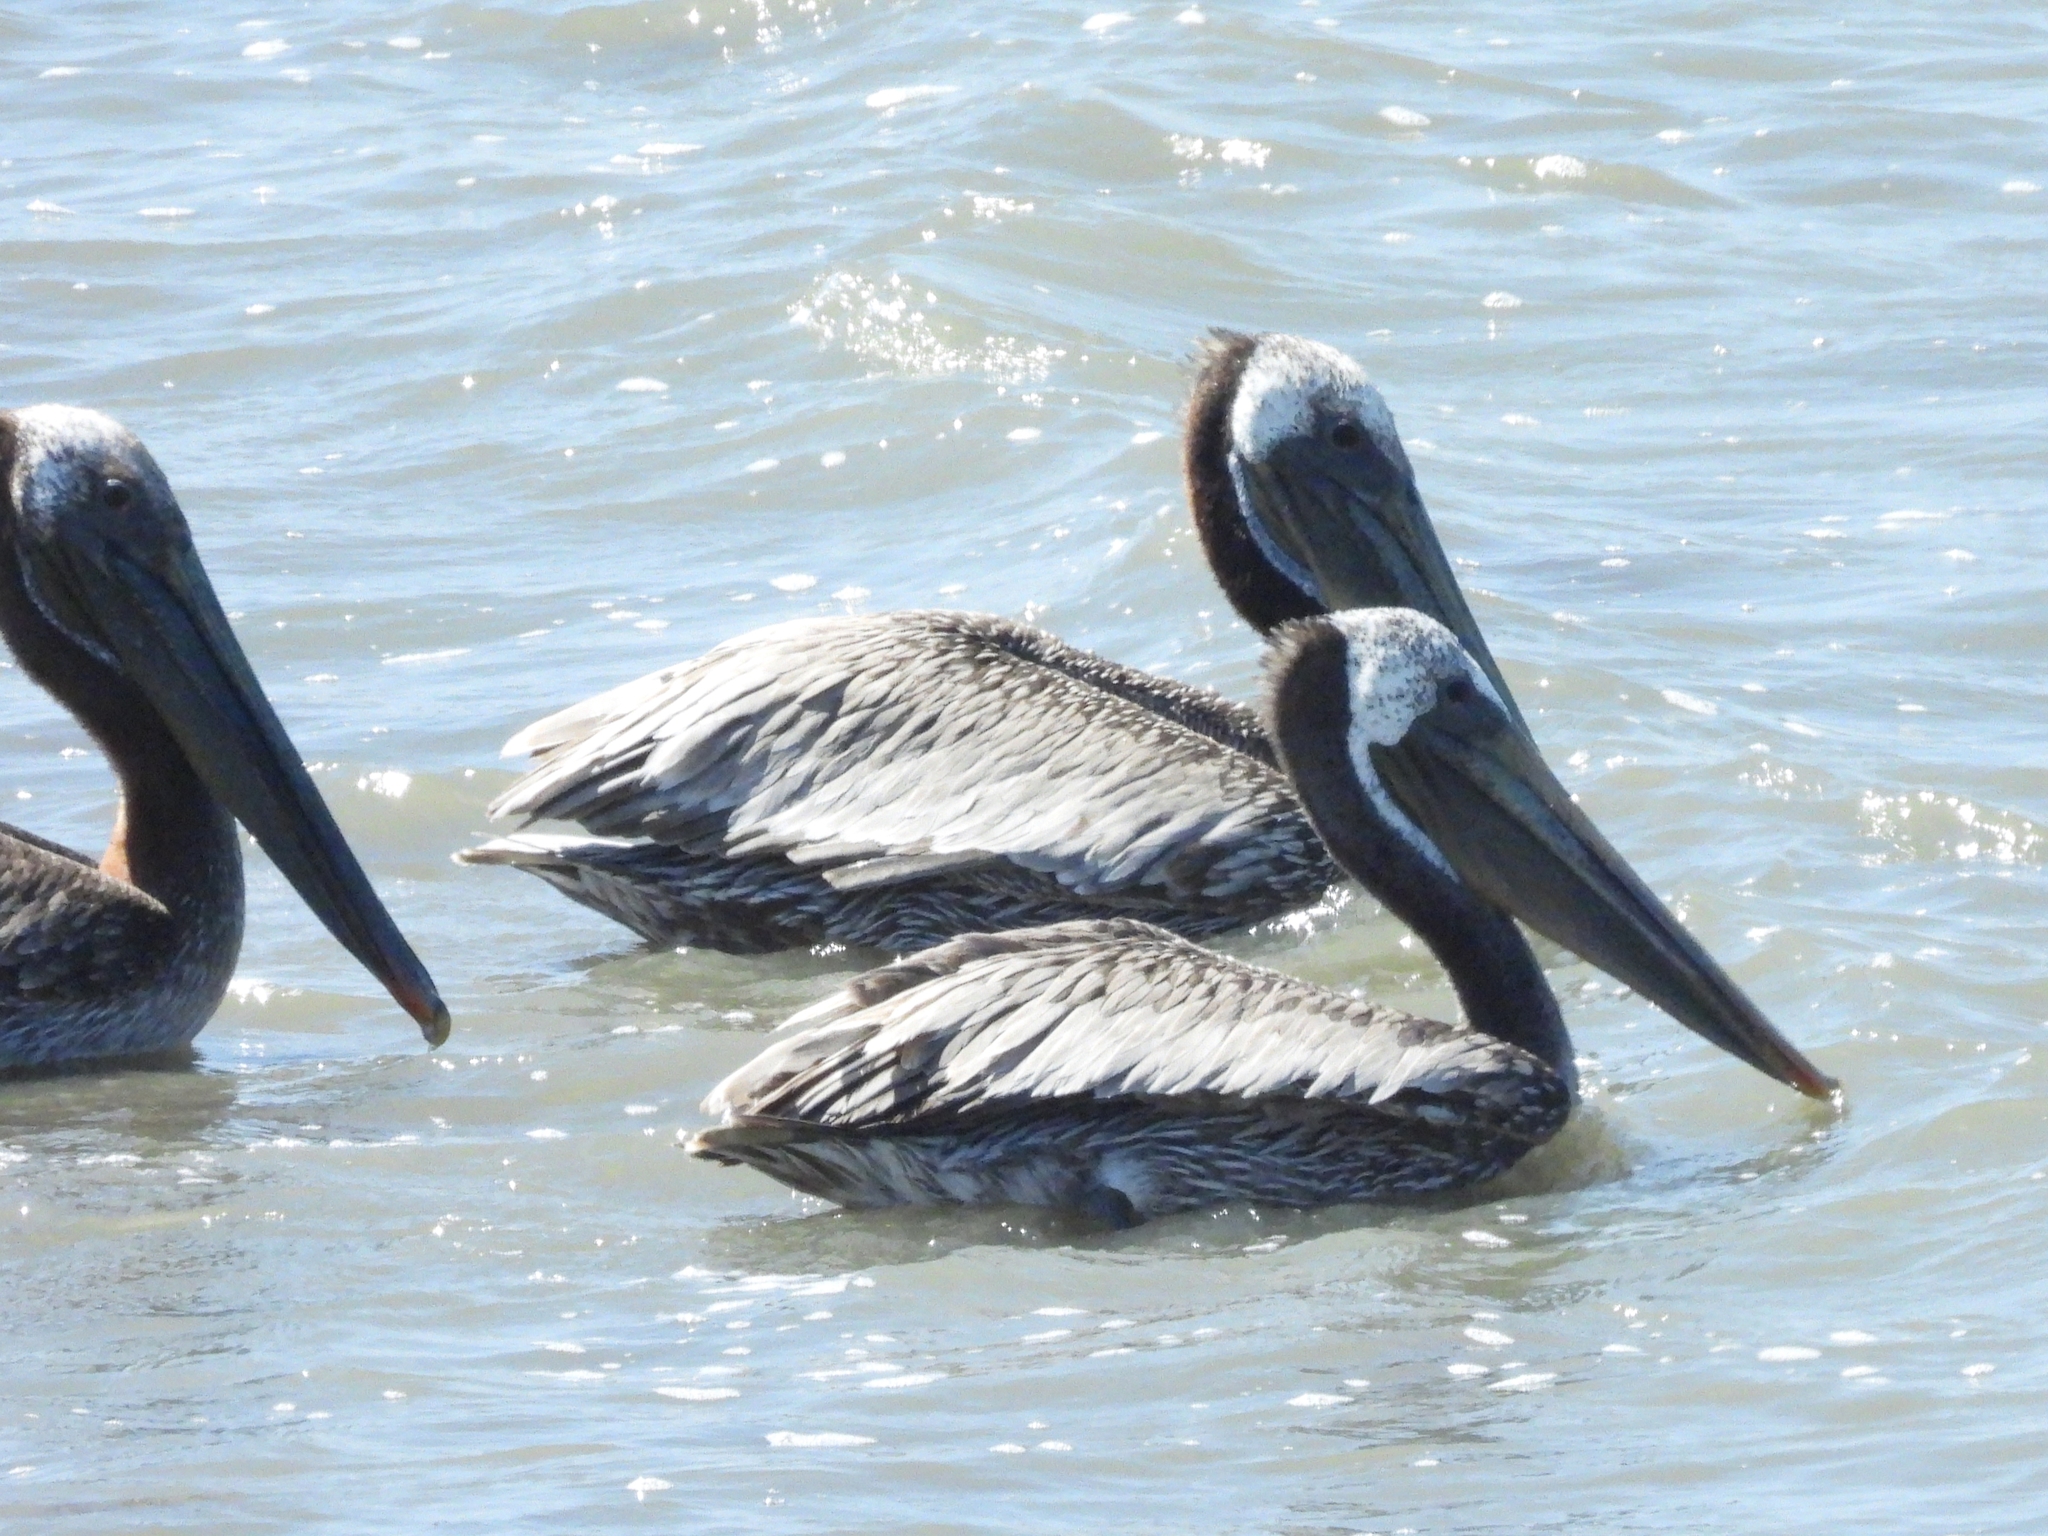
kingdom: Animalia
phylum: Chordata
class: Aves
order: Pelecaniformes
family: Pelecanidae
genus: Pelecanus
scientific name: Pelecanus occidentalis
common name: Brown pelican
